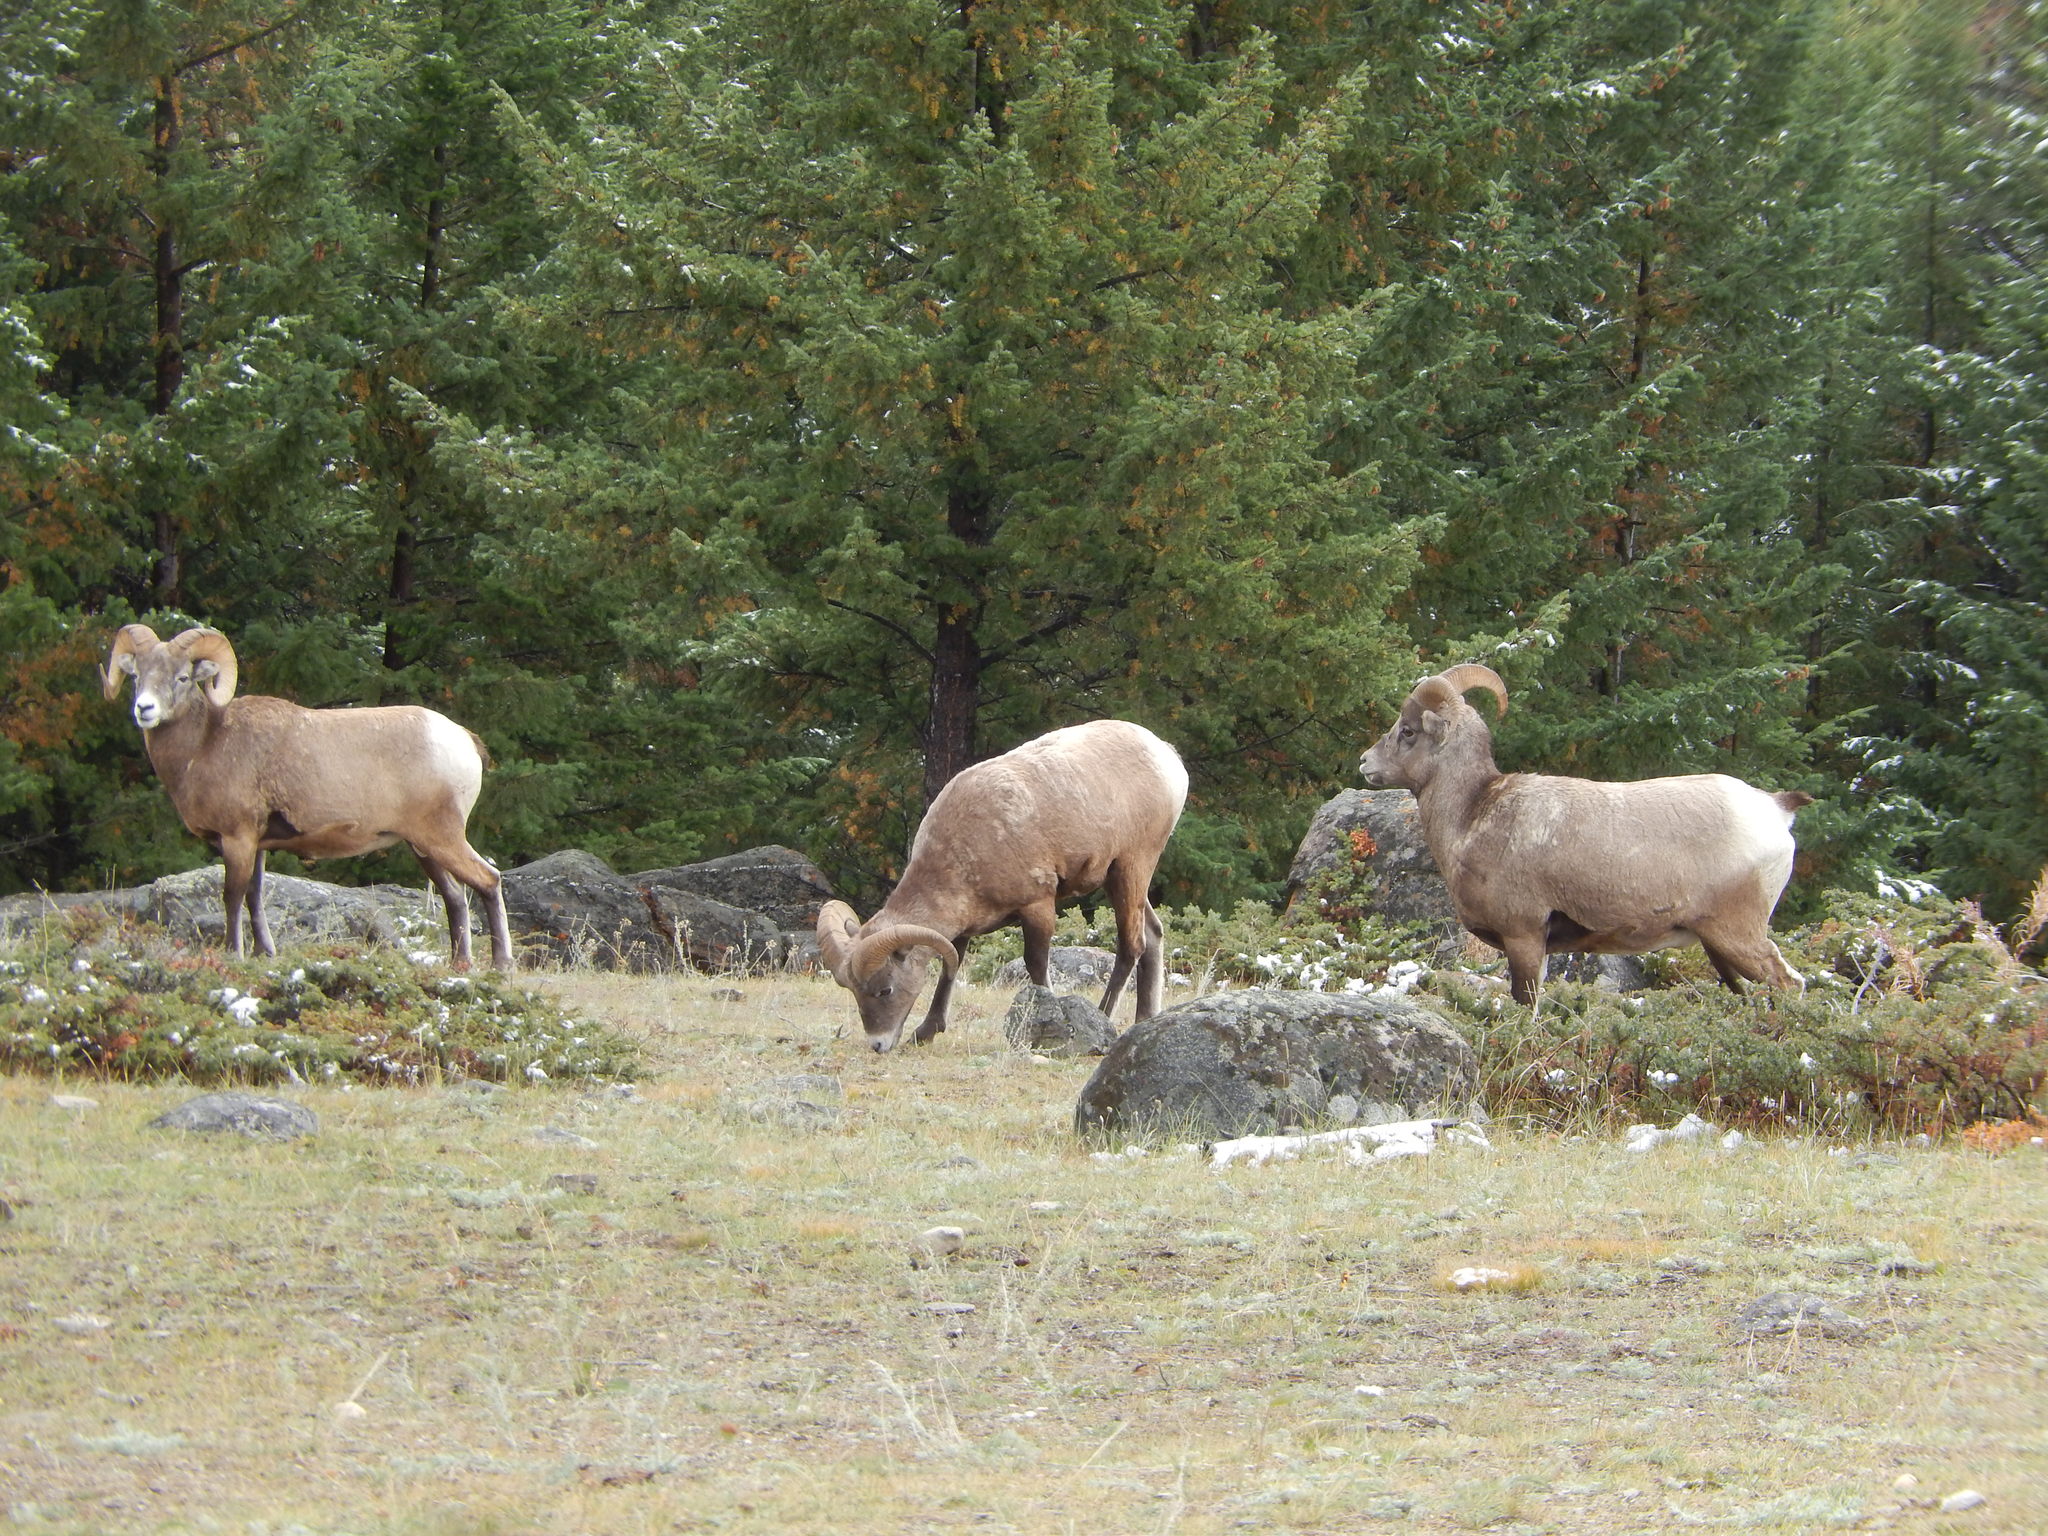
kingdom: Animalia
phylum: Chordata
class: Mammalia
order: Artiodactyla
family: Bovidae
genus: Ovis
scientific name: Ovis canadensis
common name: Bighorn sheep
